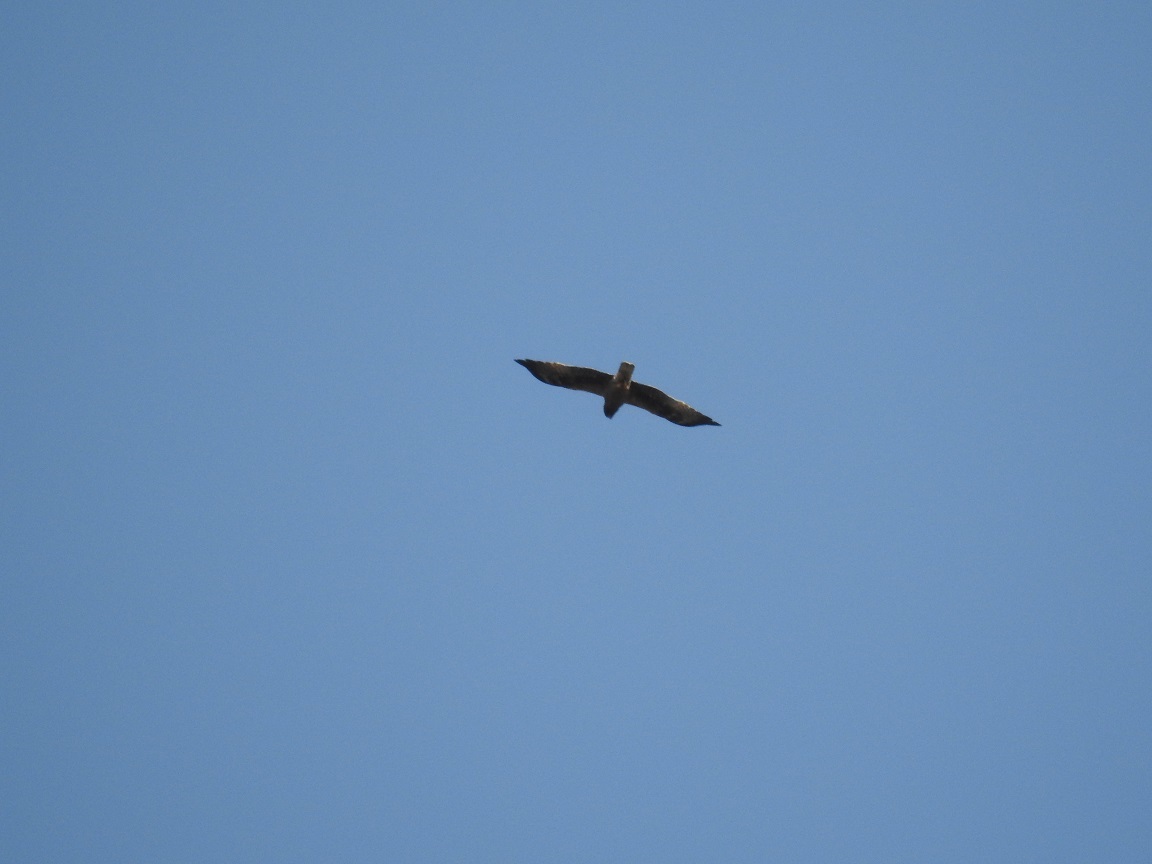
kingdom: Animalia
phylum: Chordata
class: Aves
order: Accipitriformes
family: Accipitridae
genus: Hieraaetus
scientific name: Hieraaetus pennatus
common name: Booted eagle
